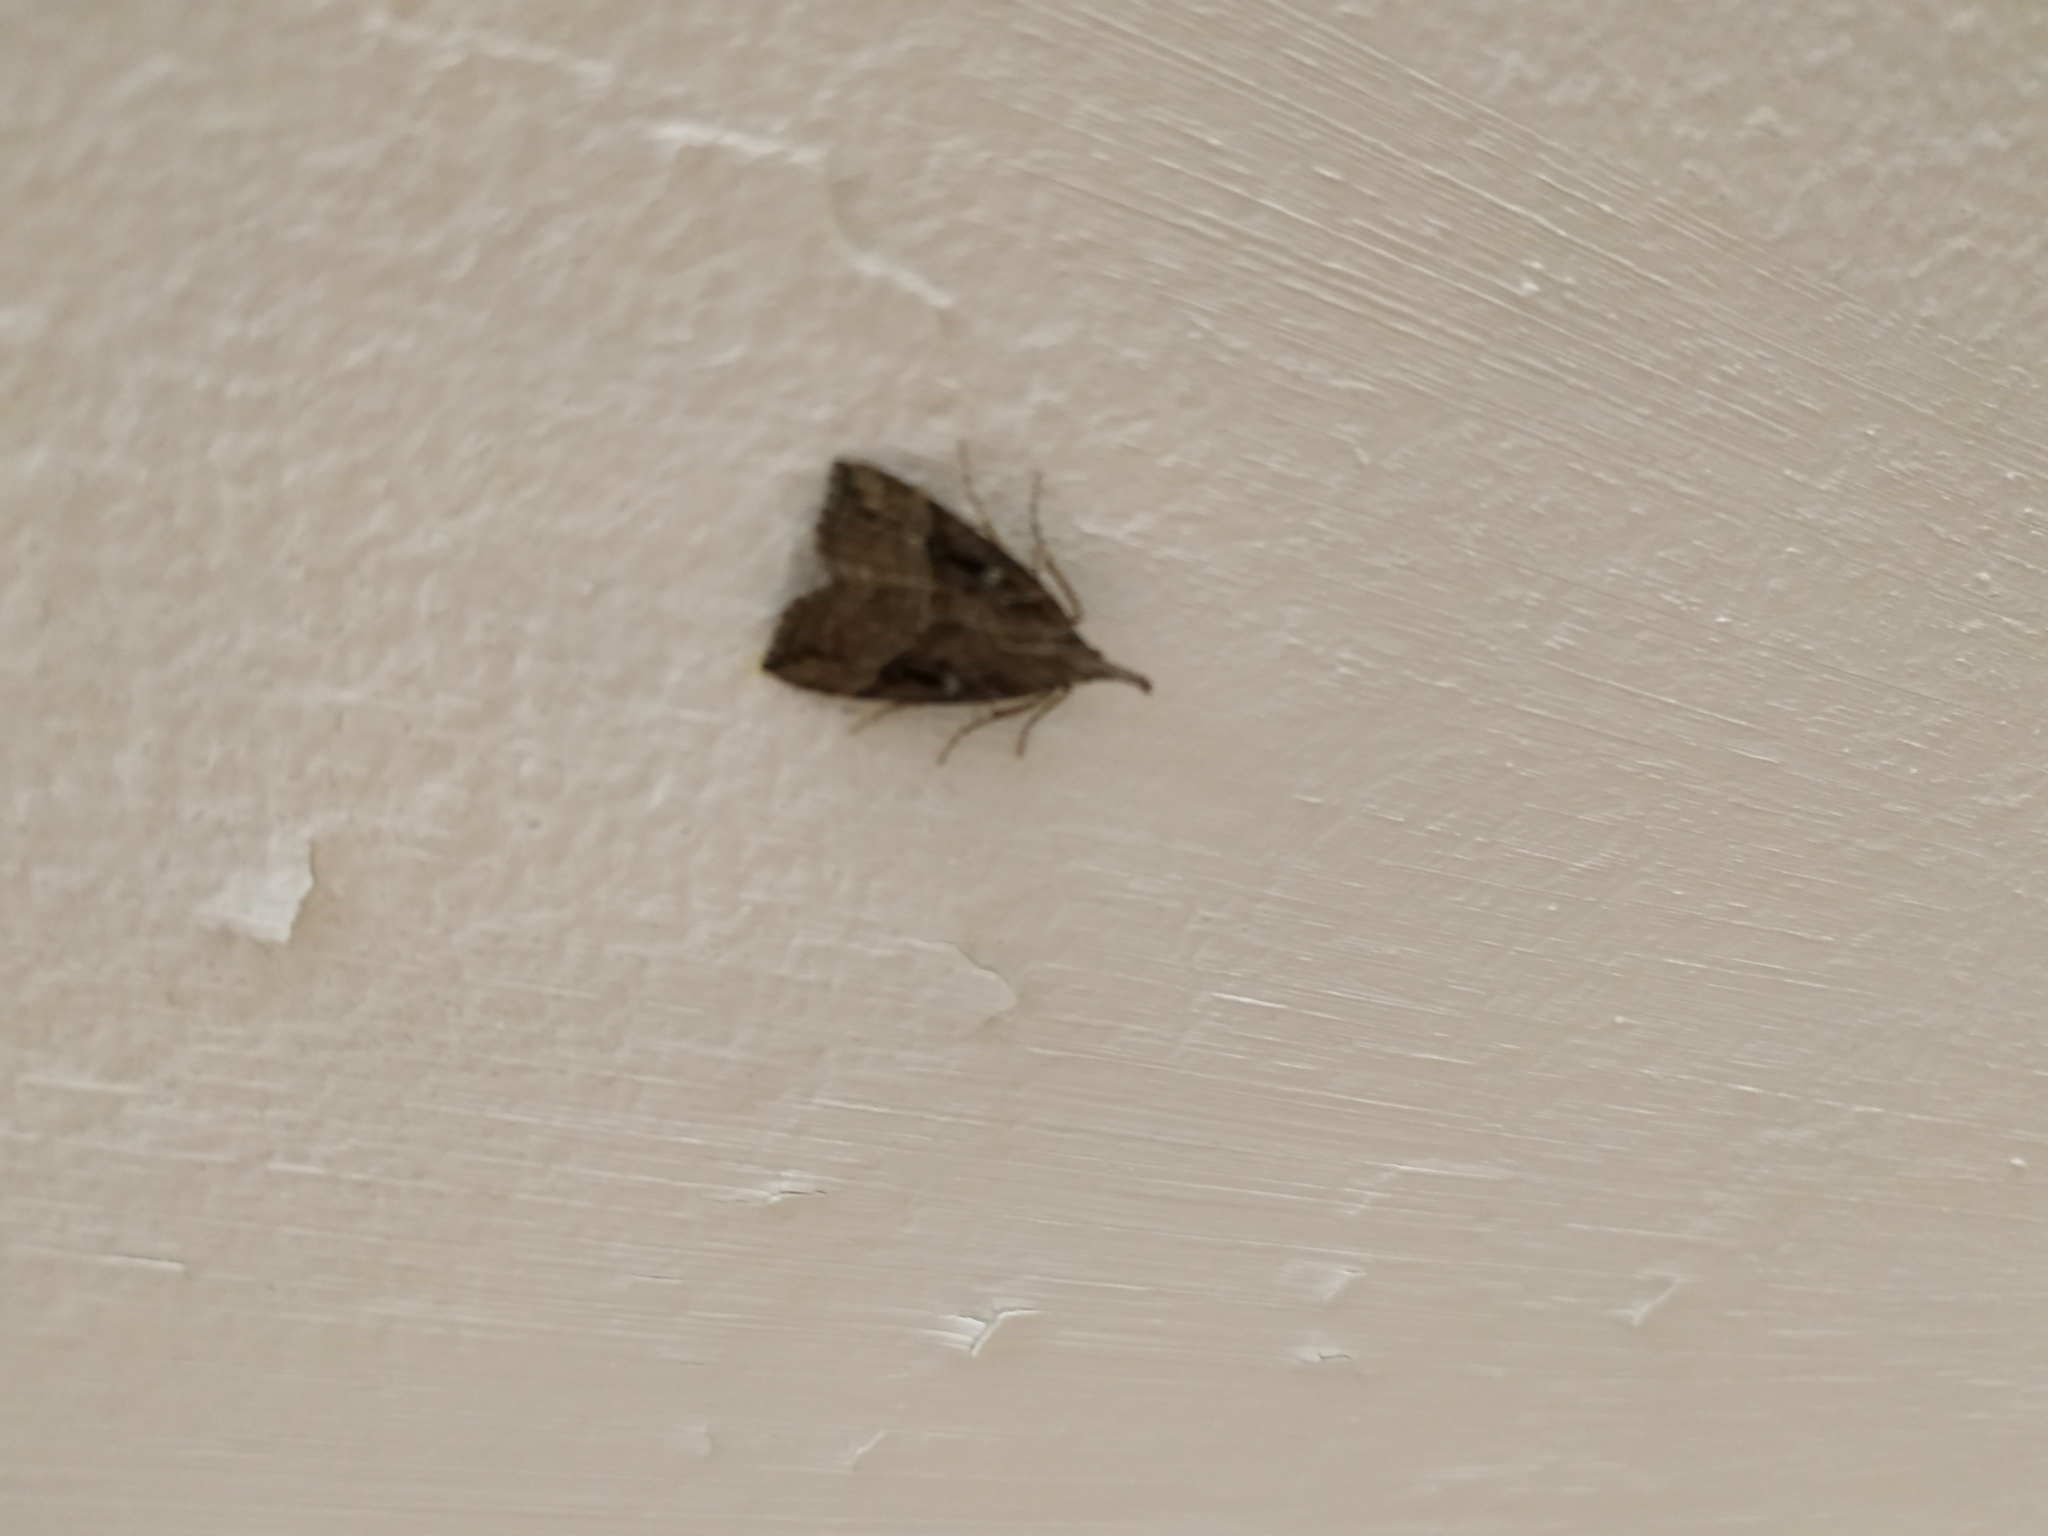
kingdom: Animalia
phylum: Arthropoda
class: Insecta
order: Lepidoptera
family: Erebidae
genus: Hypena
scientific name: Hypena rostralis
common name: Buttoned snout
